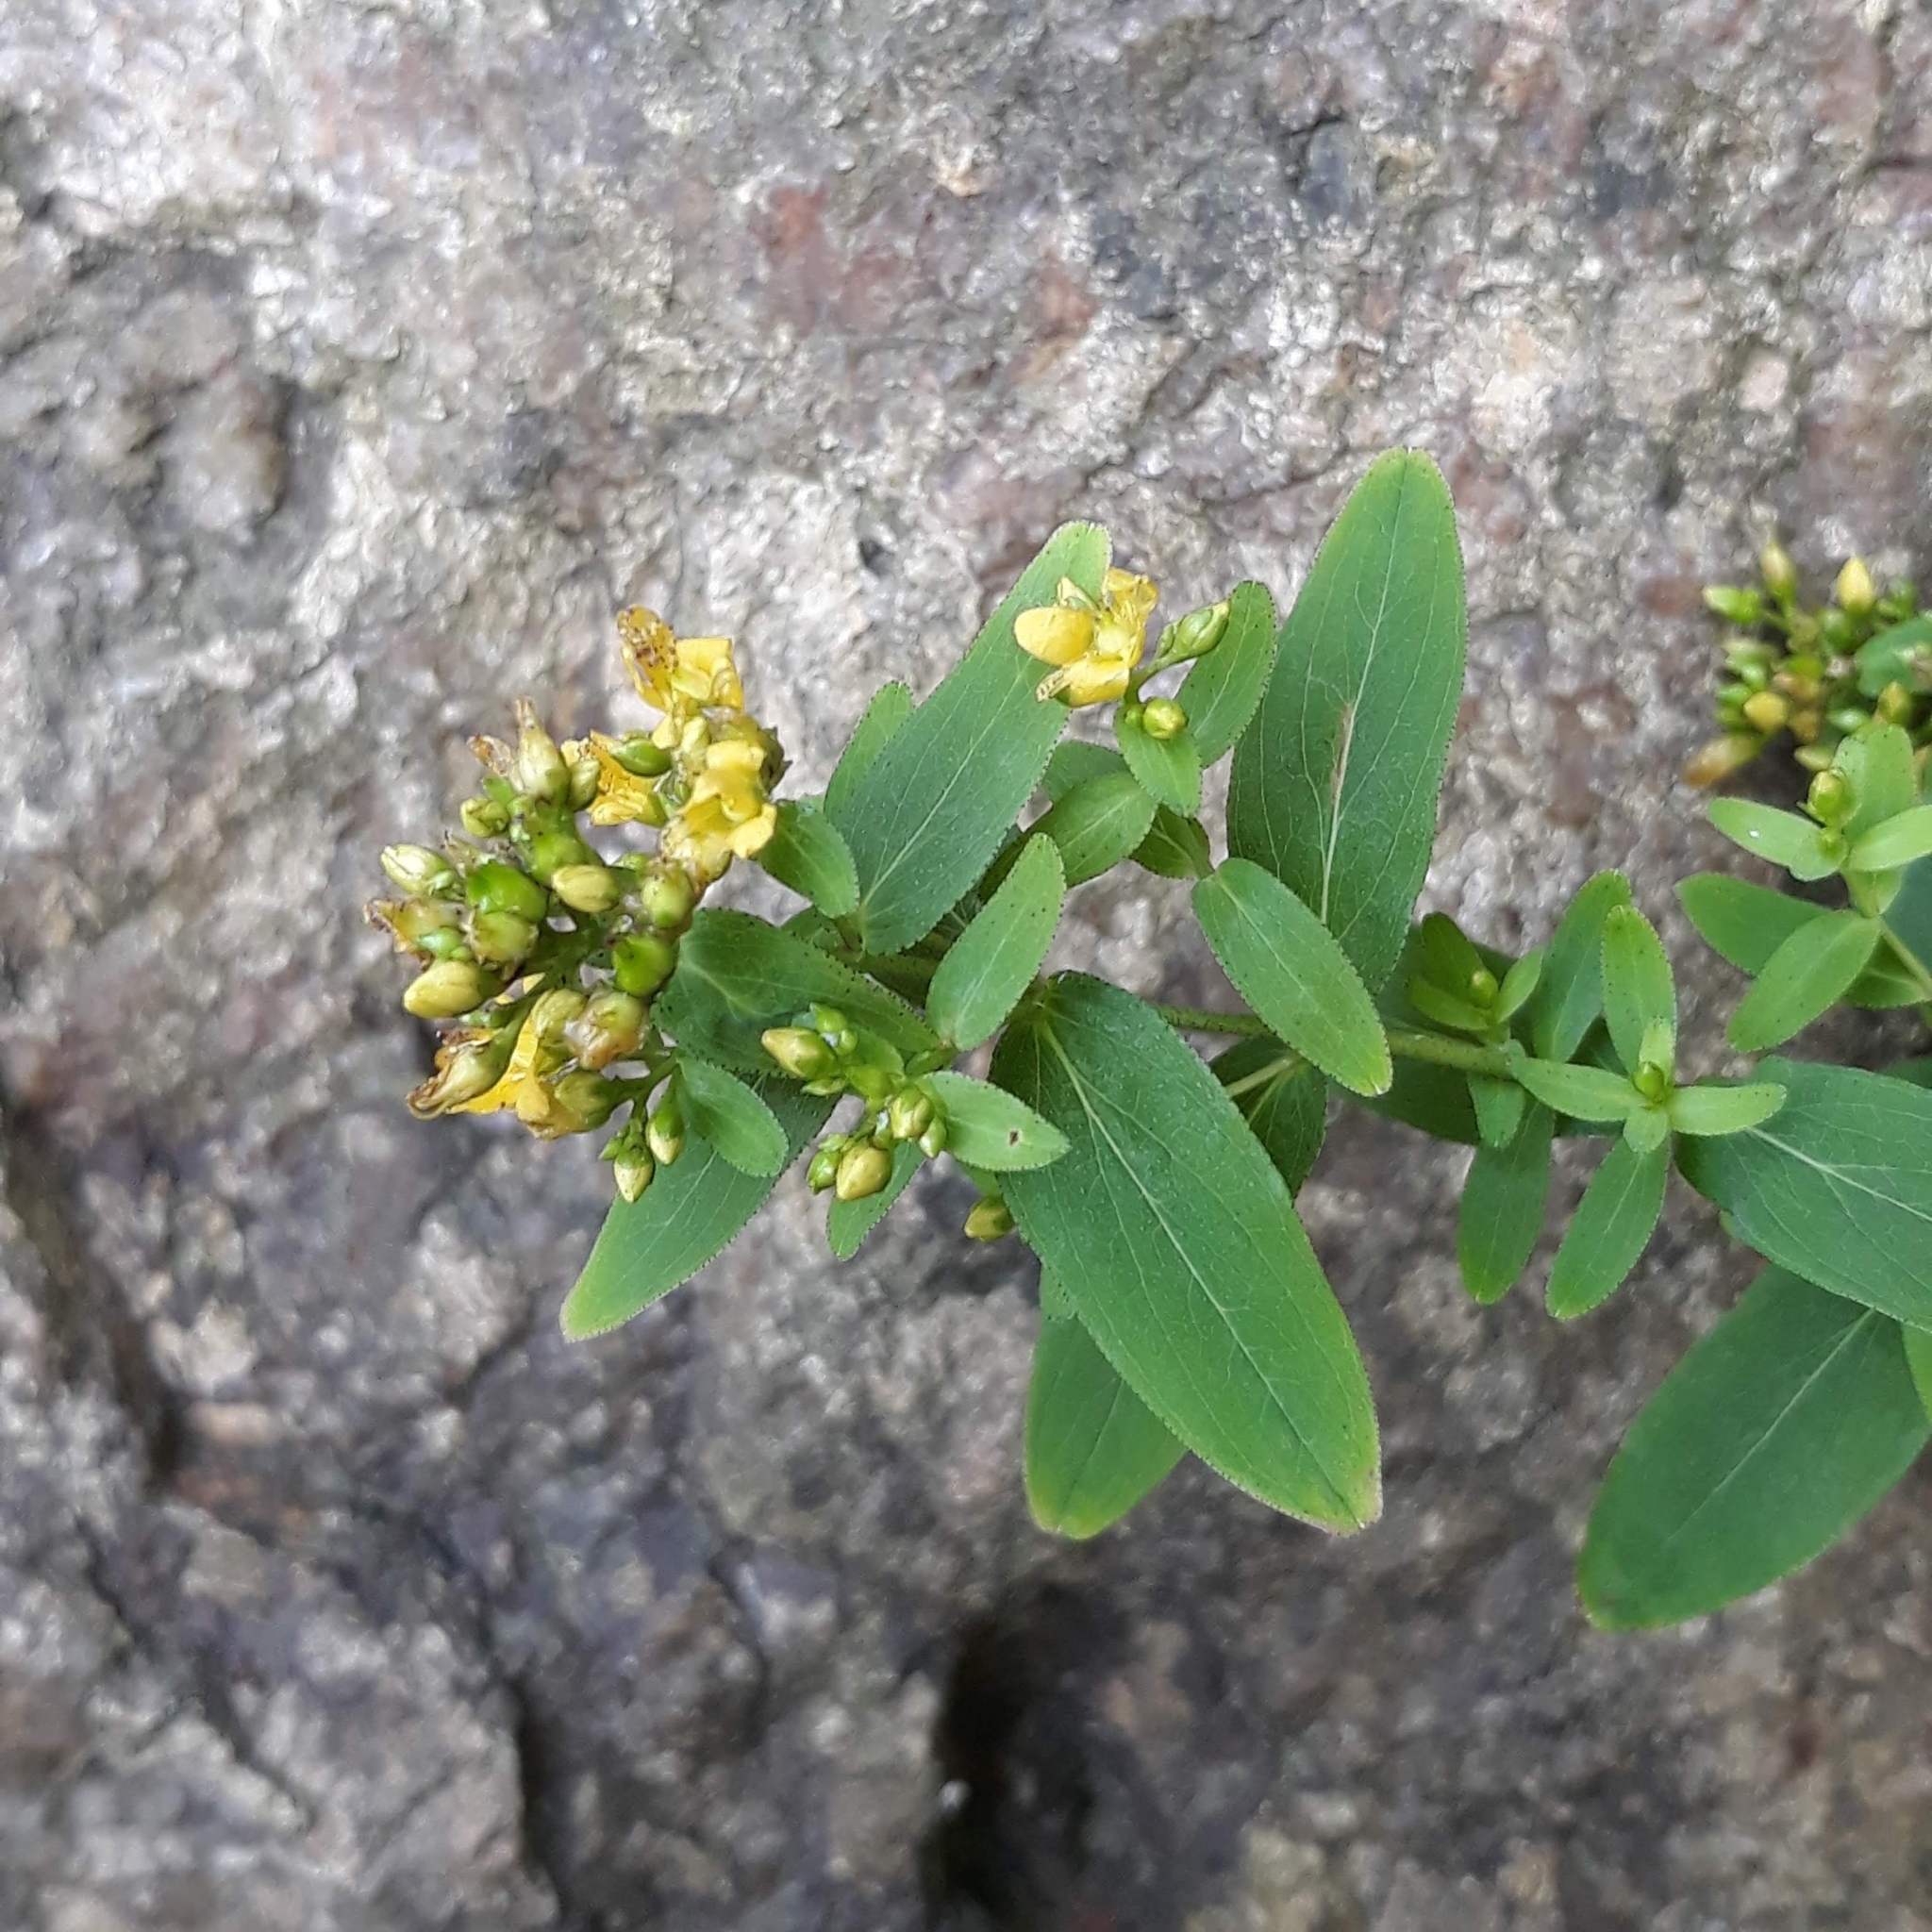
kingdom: Plantae
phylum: Tracheophyta
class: Magnoliopsida
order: Malpighiales
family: Hypericaceae
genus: Hypericum
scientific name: Hypericum punctatum
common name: Spotted st. john's-wort
